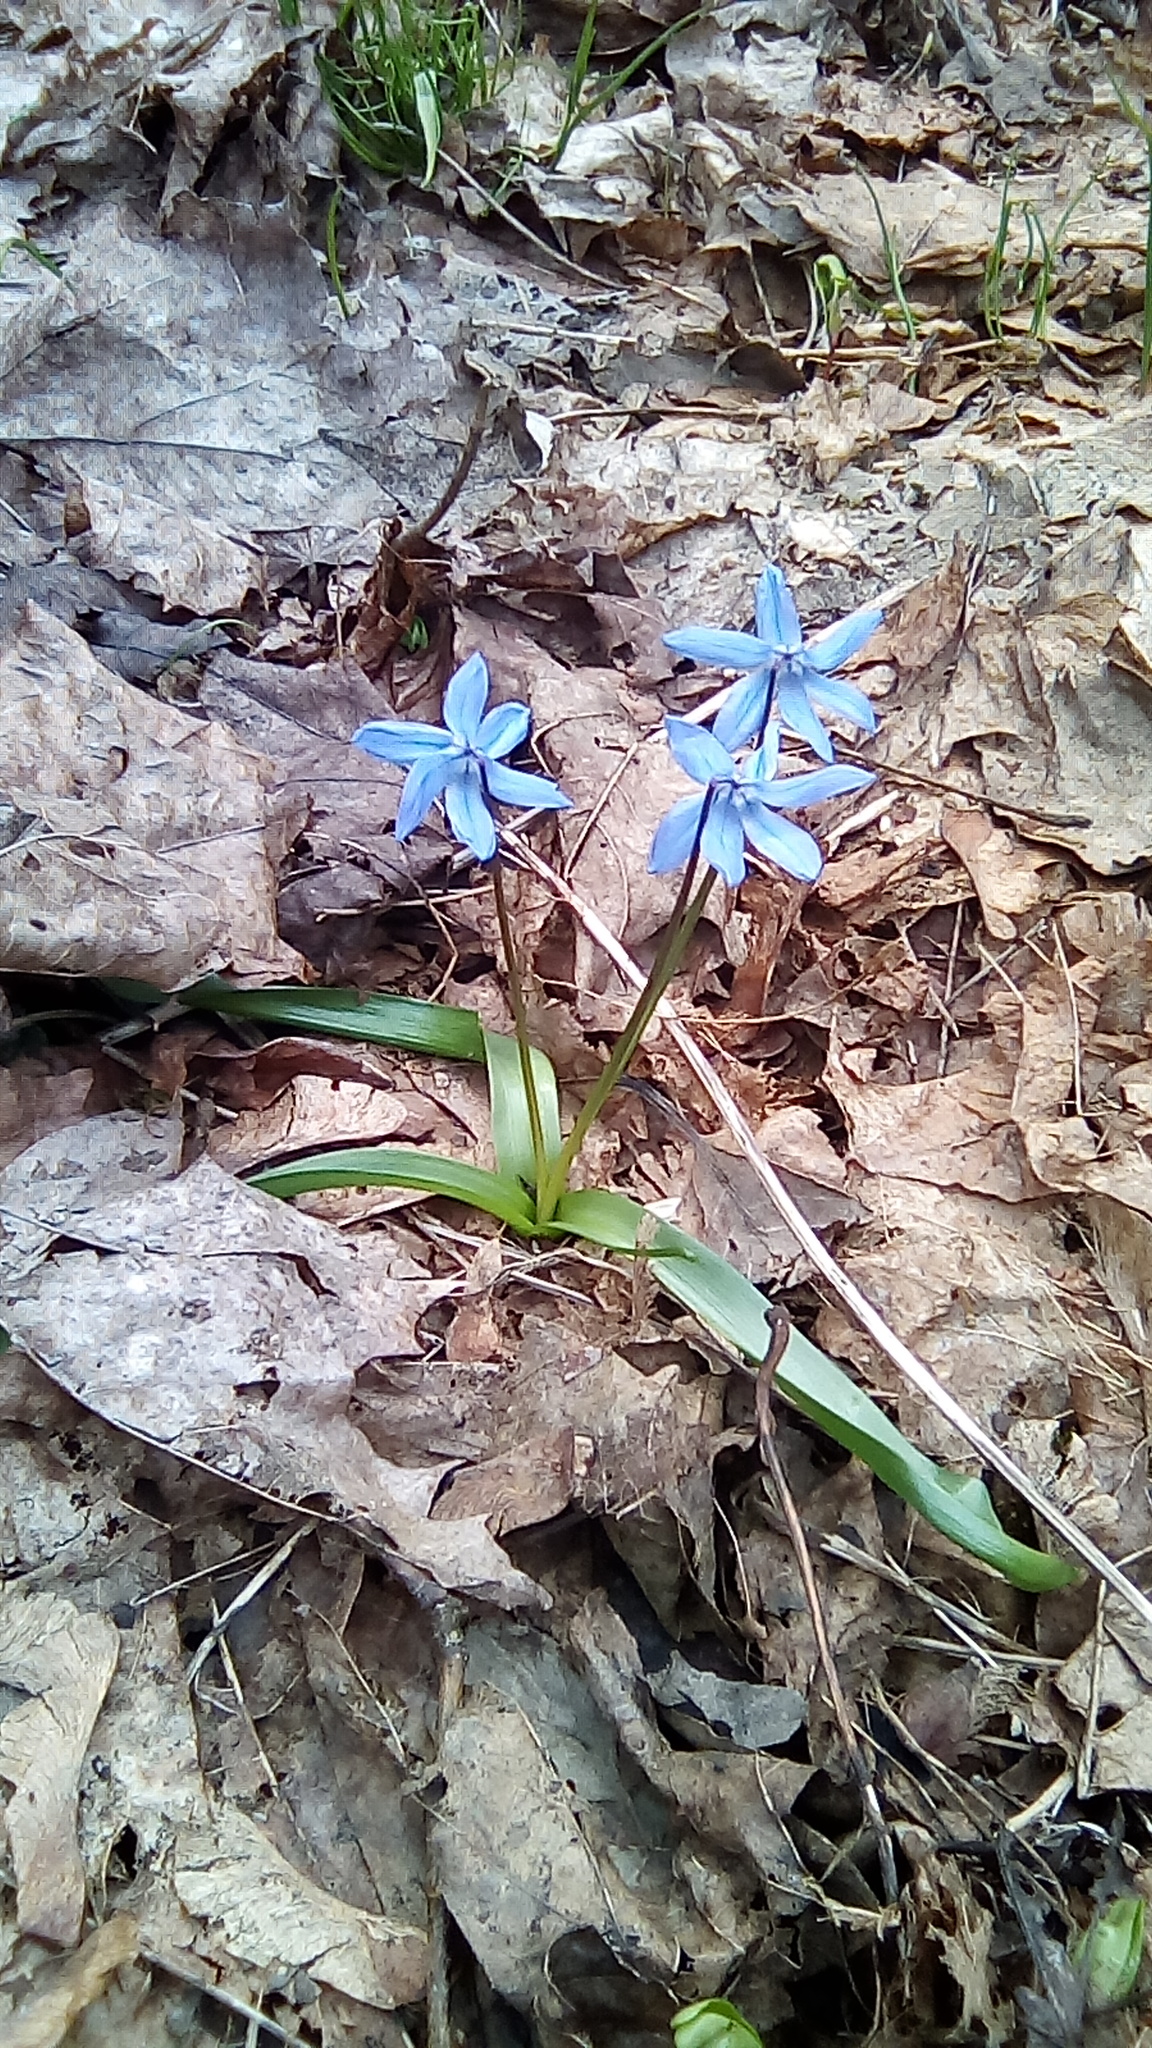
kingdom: Plantae
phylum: Tracheophyta
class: Liliopsida
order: Asparagales
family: Asparagaceae
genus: Scilla
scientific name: Scilla siberica
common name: Siberian squill
